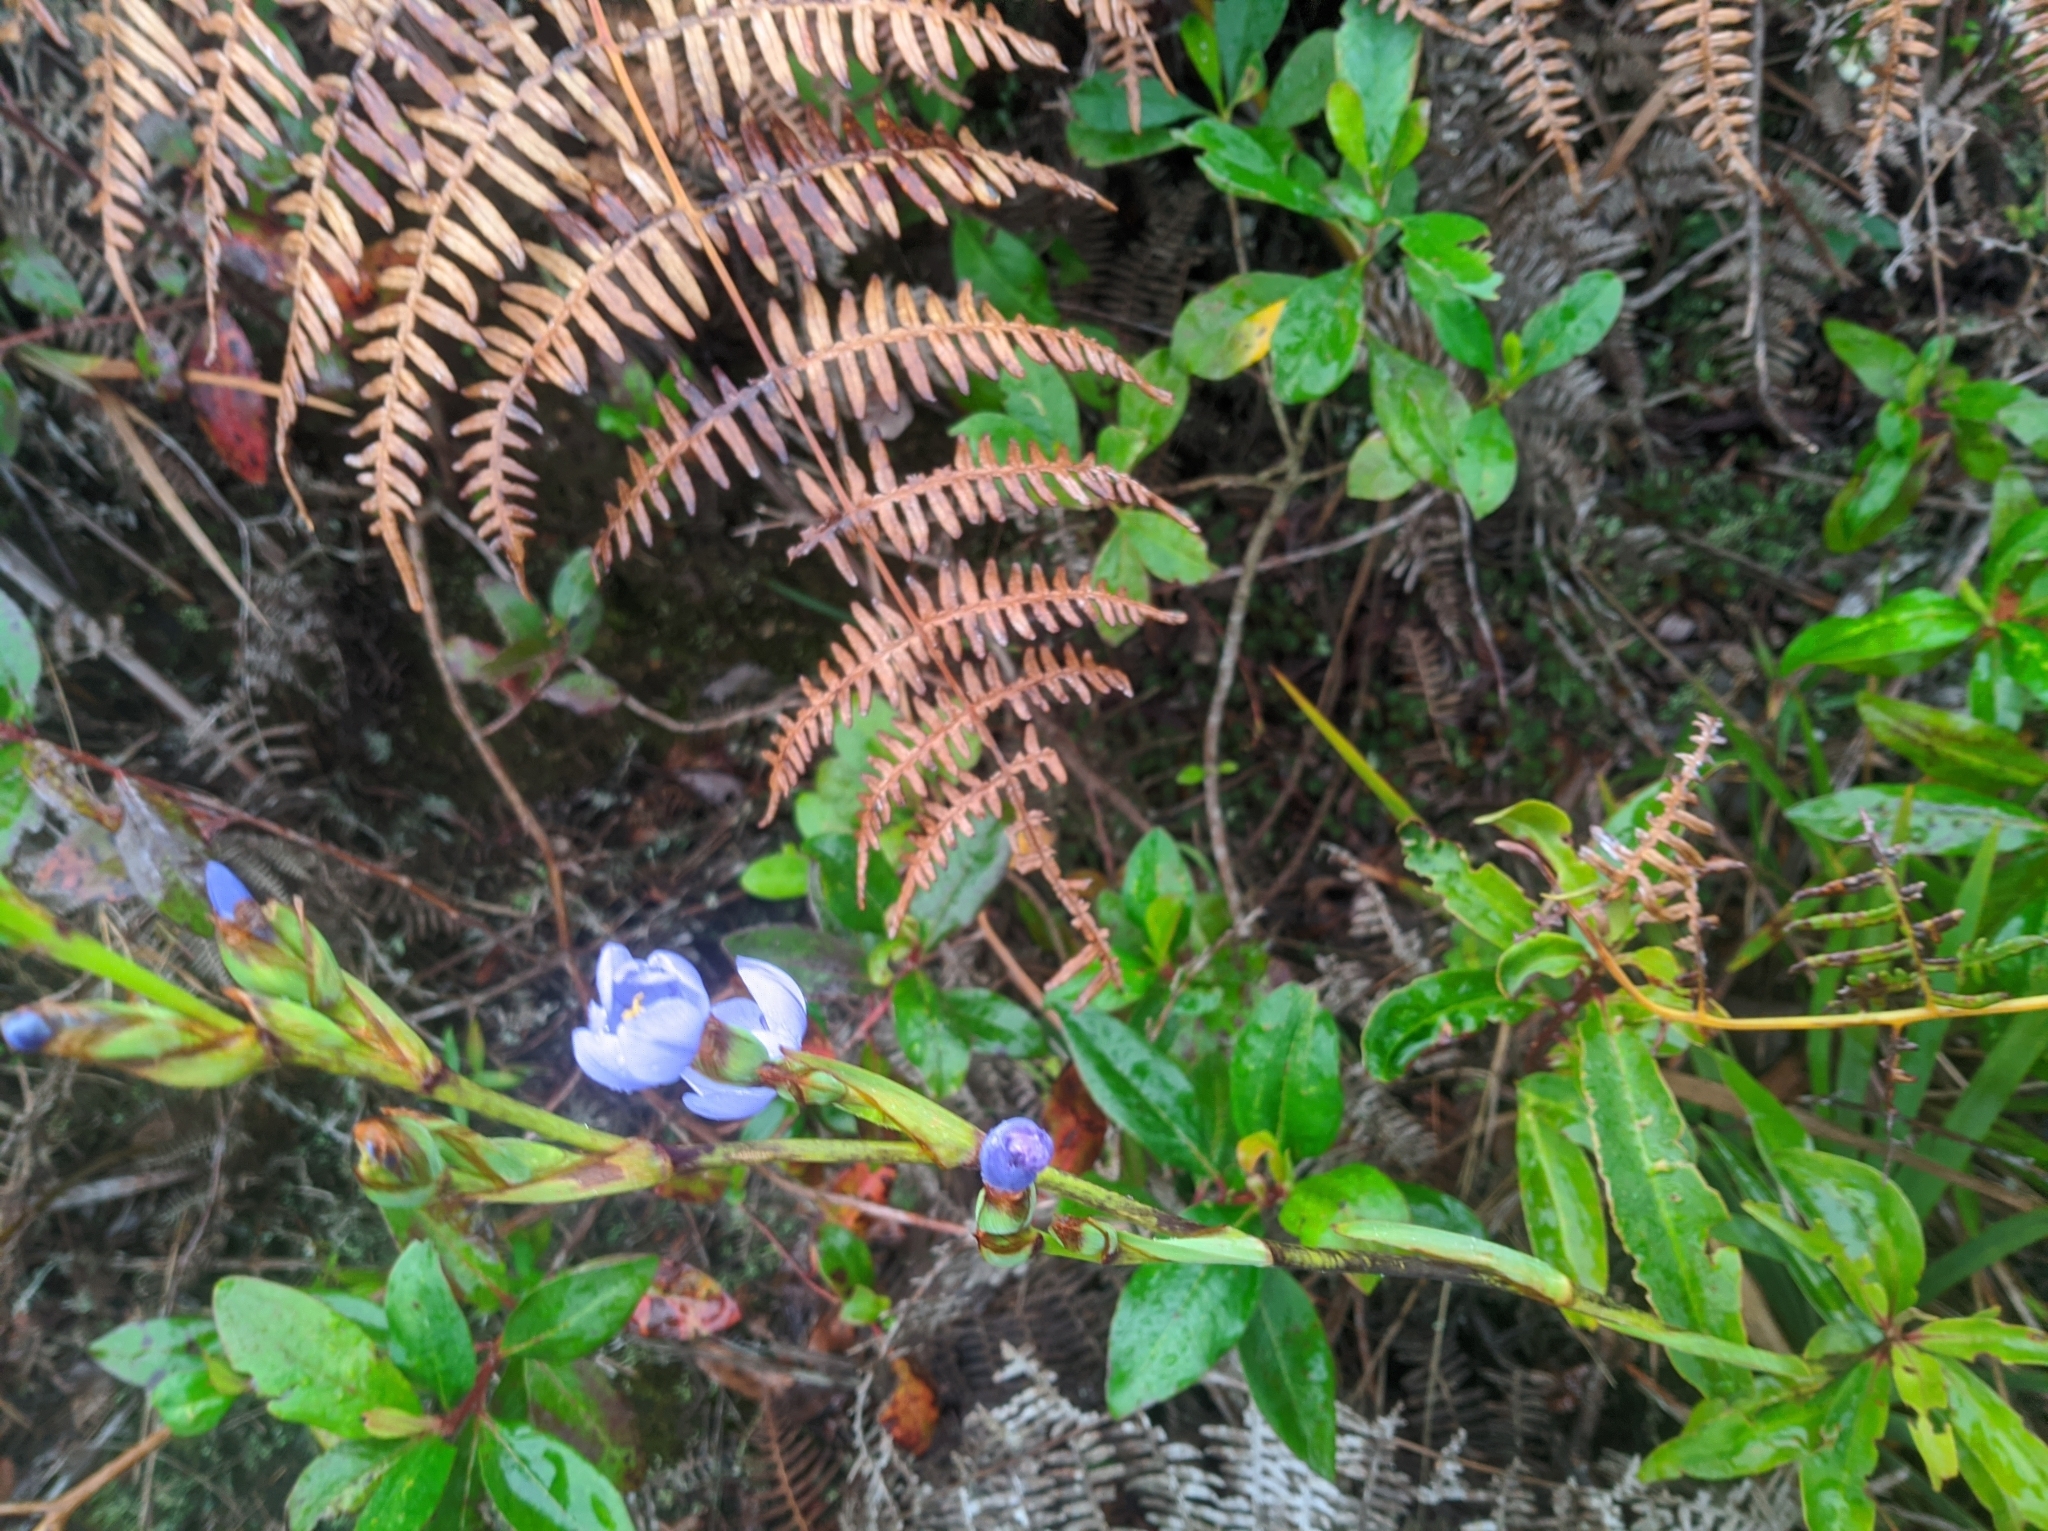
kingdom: Plantae
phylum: Tracheophyta
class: Liliopsida
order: Asparagales
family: Iridaceae
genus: Orthrosanthus
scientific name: Orthrosanthus acorifolius
